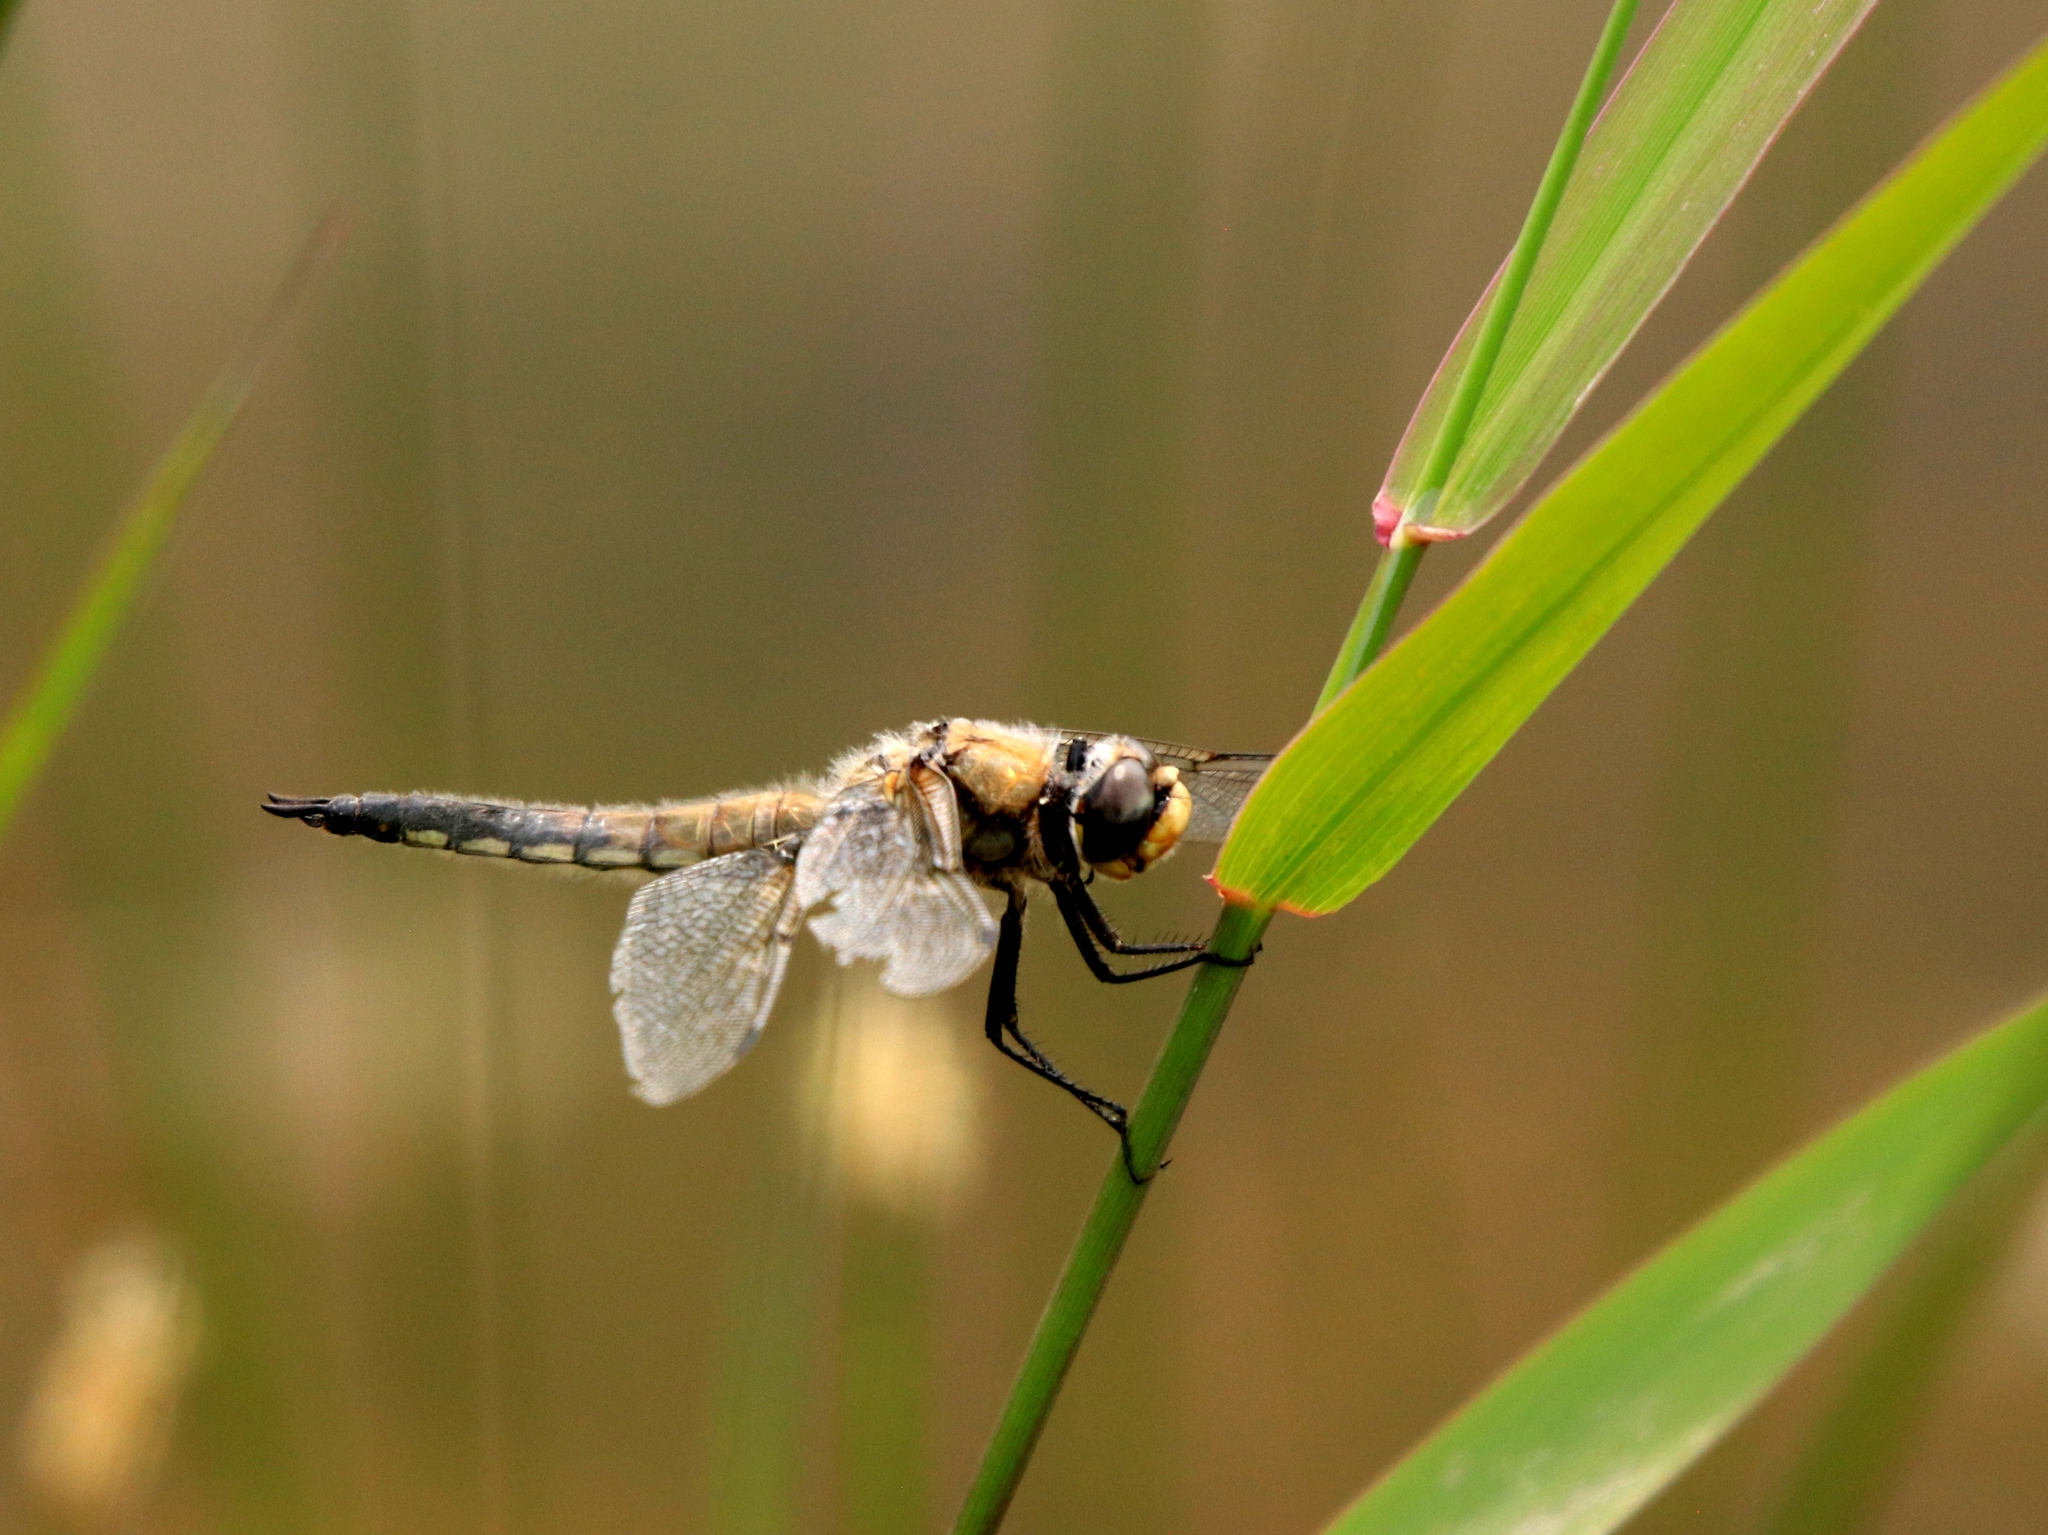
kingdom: Animalia
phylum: Arthropoda
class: Insecta
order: Odonata
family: Libellulidae
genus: Libellula
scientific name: Libellula quadrimaculata
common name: Four-spotted chaser
